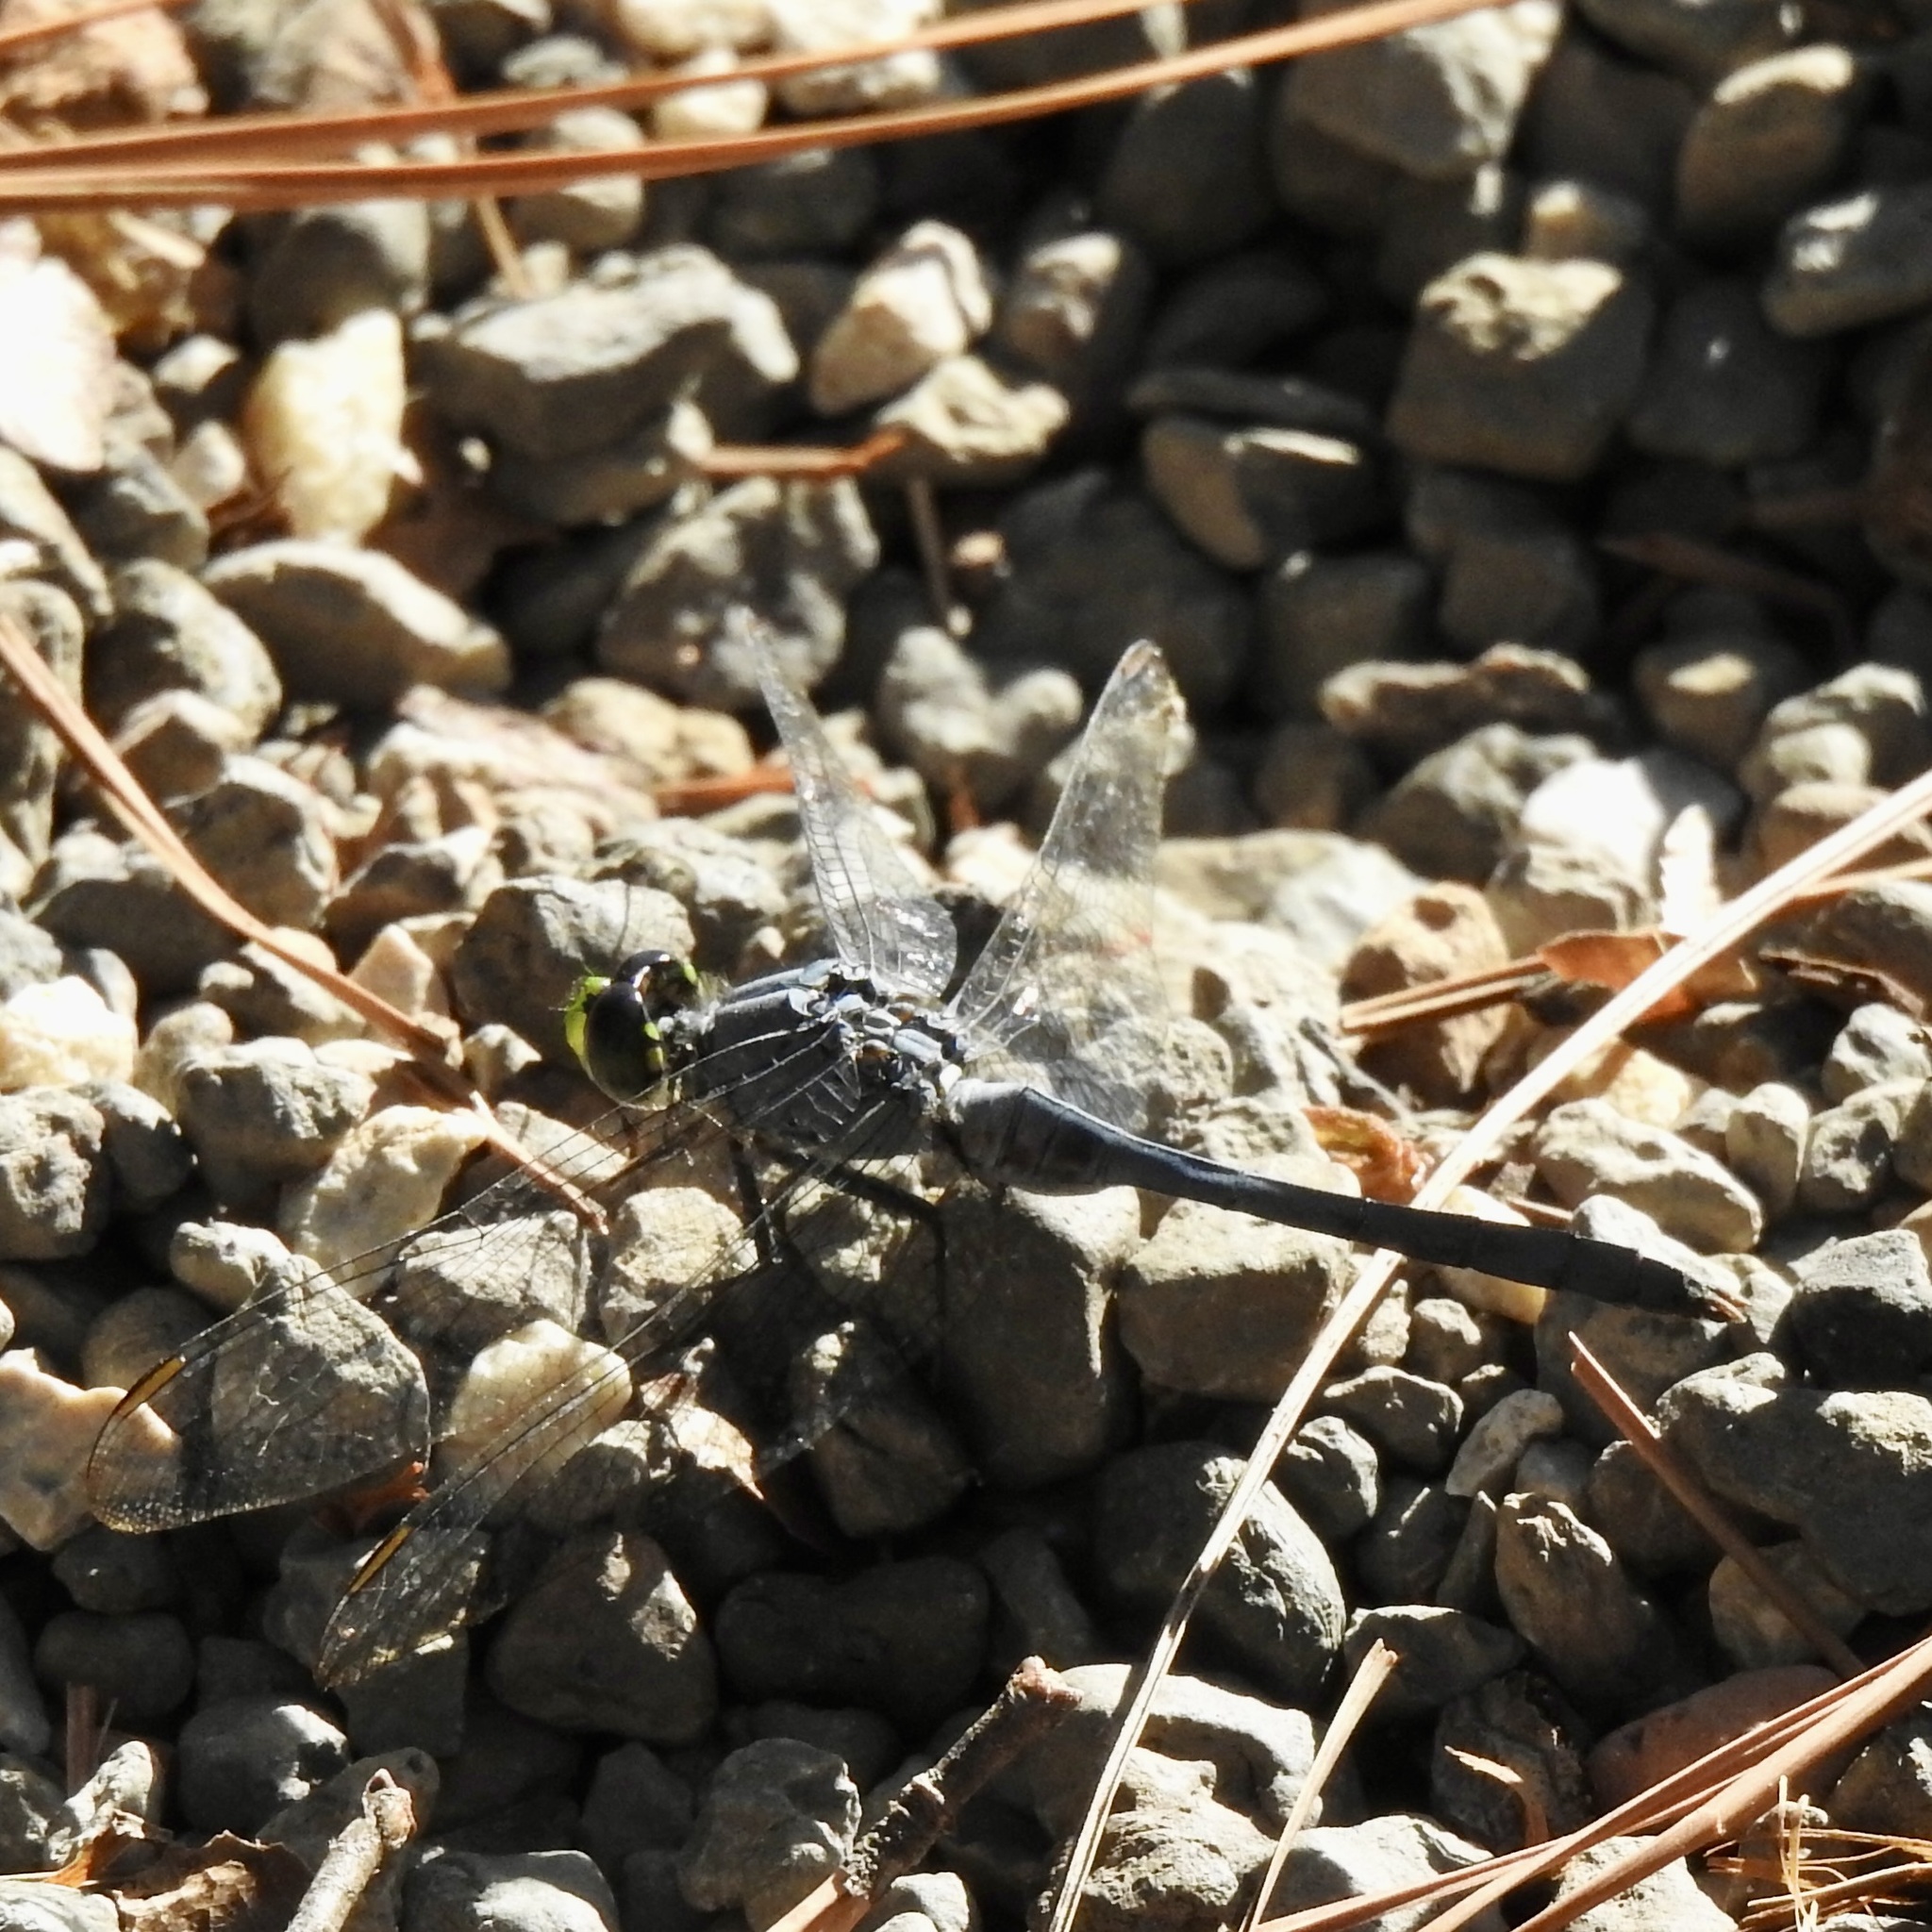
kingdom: Animalia
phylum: Arthropoda
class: Insecta
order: Odonata
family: Libellulidae
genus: Erythemis
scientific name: Erythemis simplicicollis
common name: Eastern pondhawk
